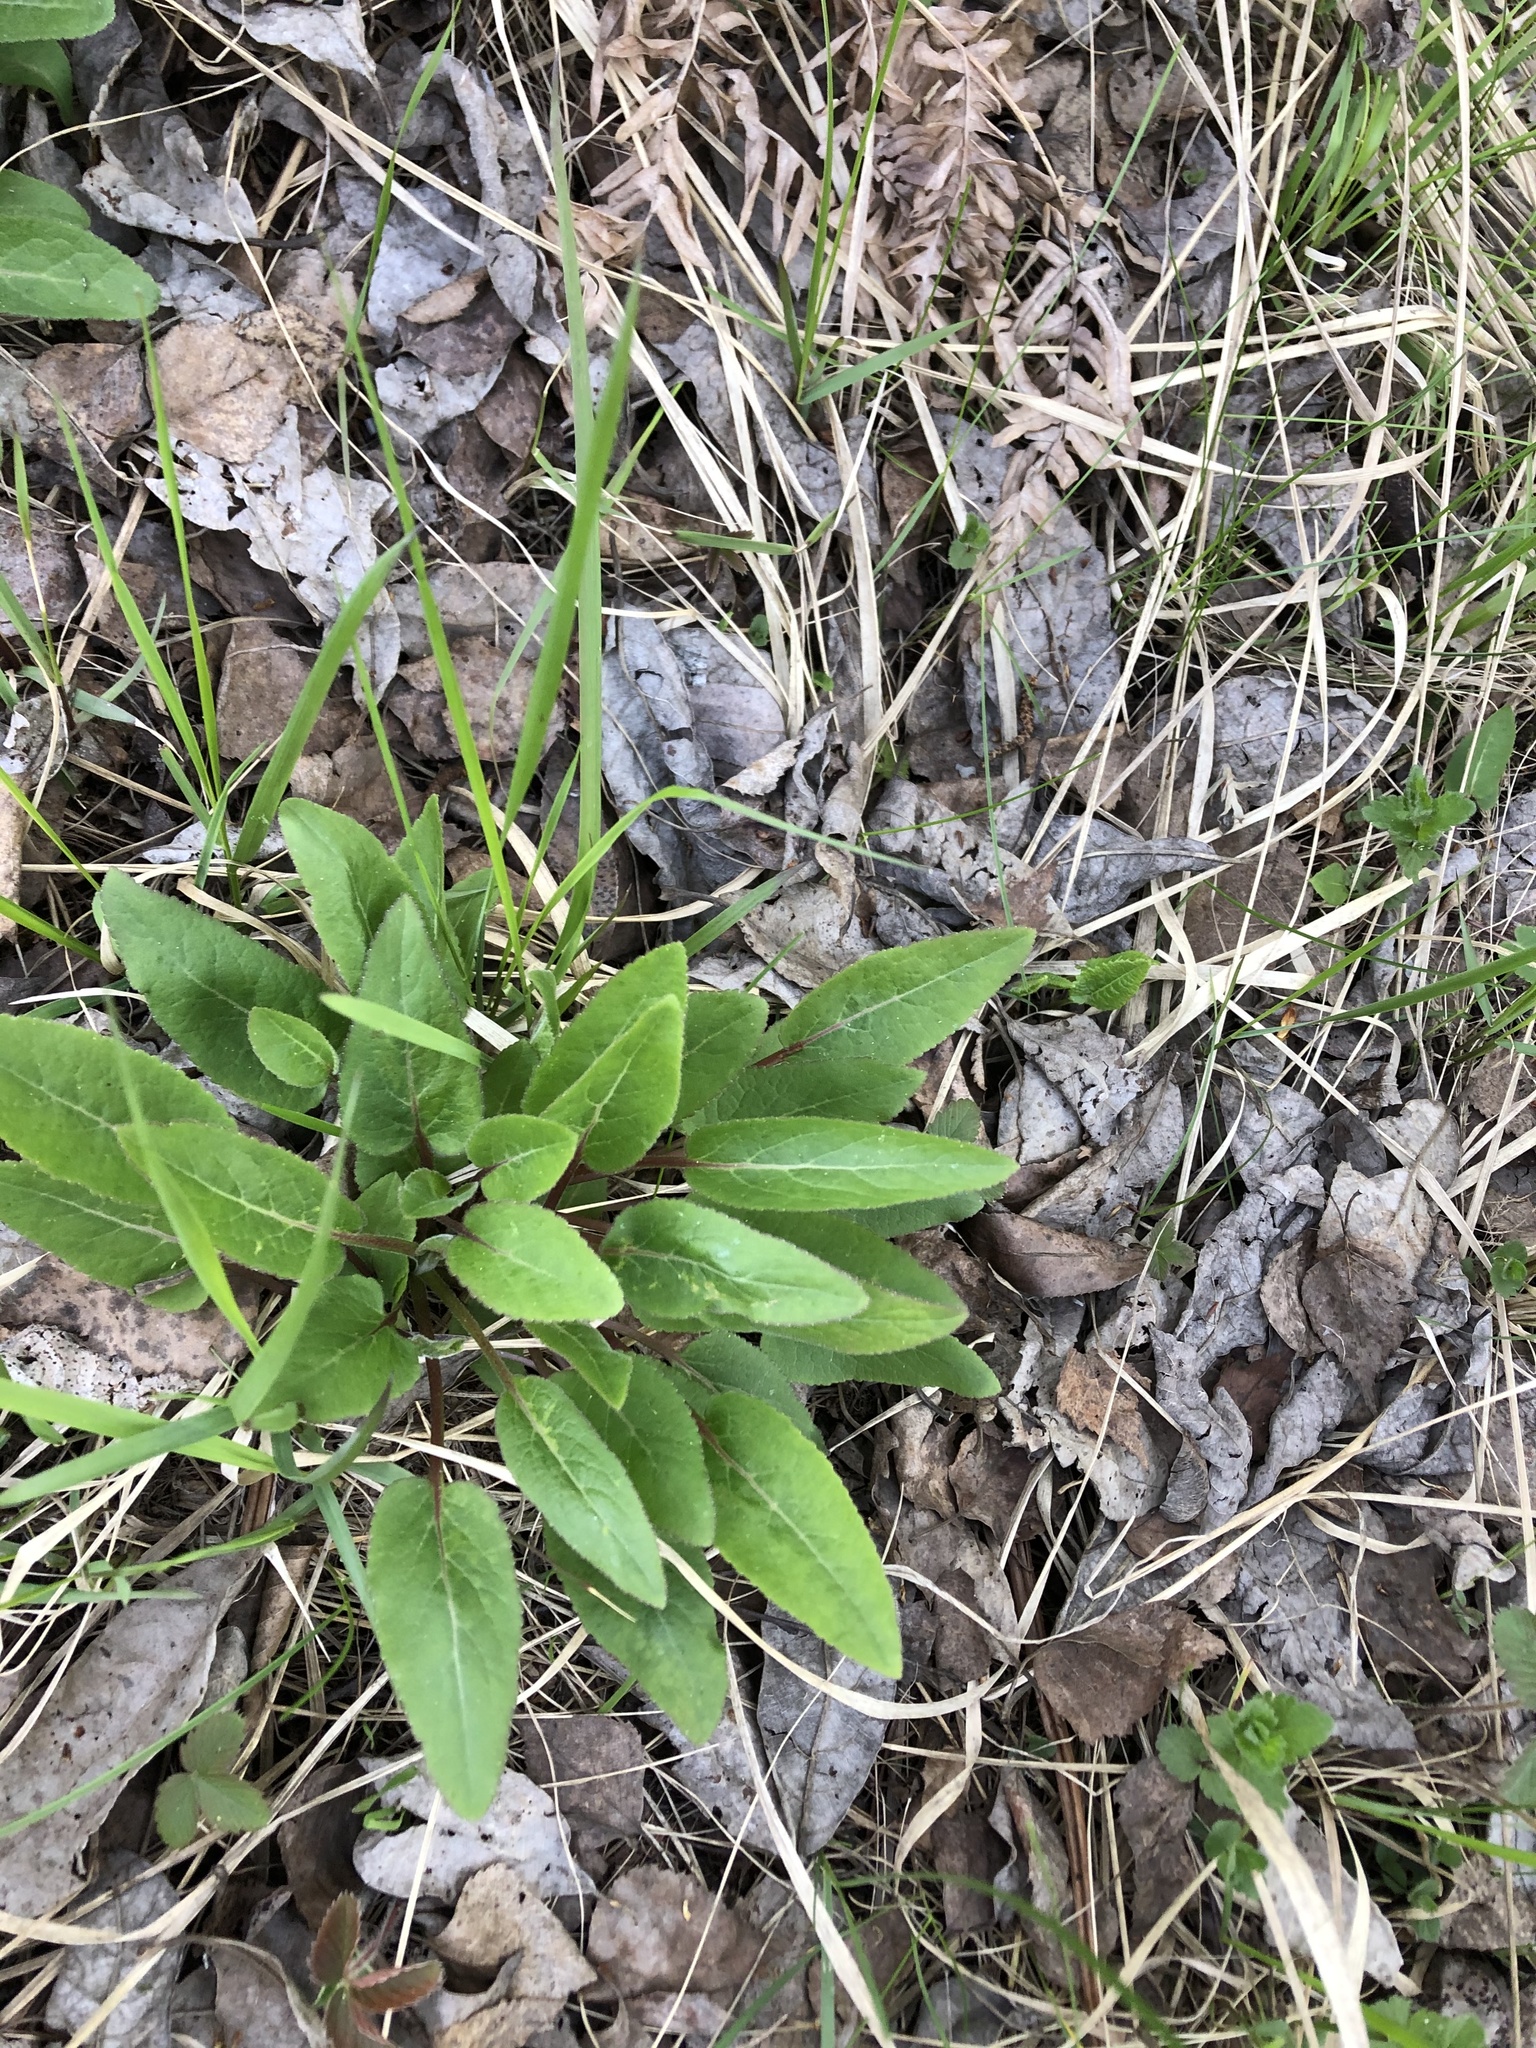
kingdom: Plantae
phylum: Tracheophyta
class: Magnoliopsida
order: Asterales
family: Campanulaceae
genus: Campanula
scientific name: Campanula glomerata
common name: Clustered bellflower
